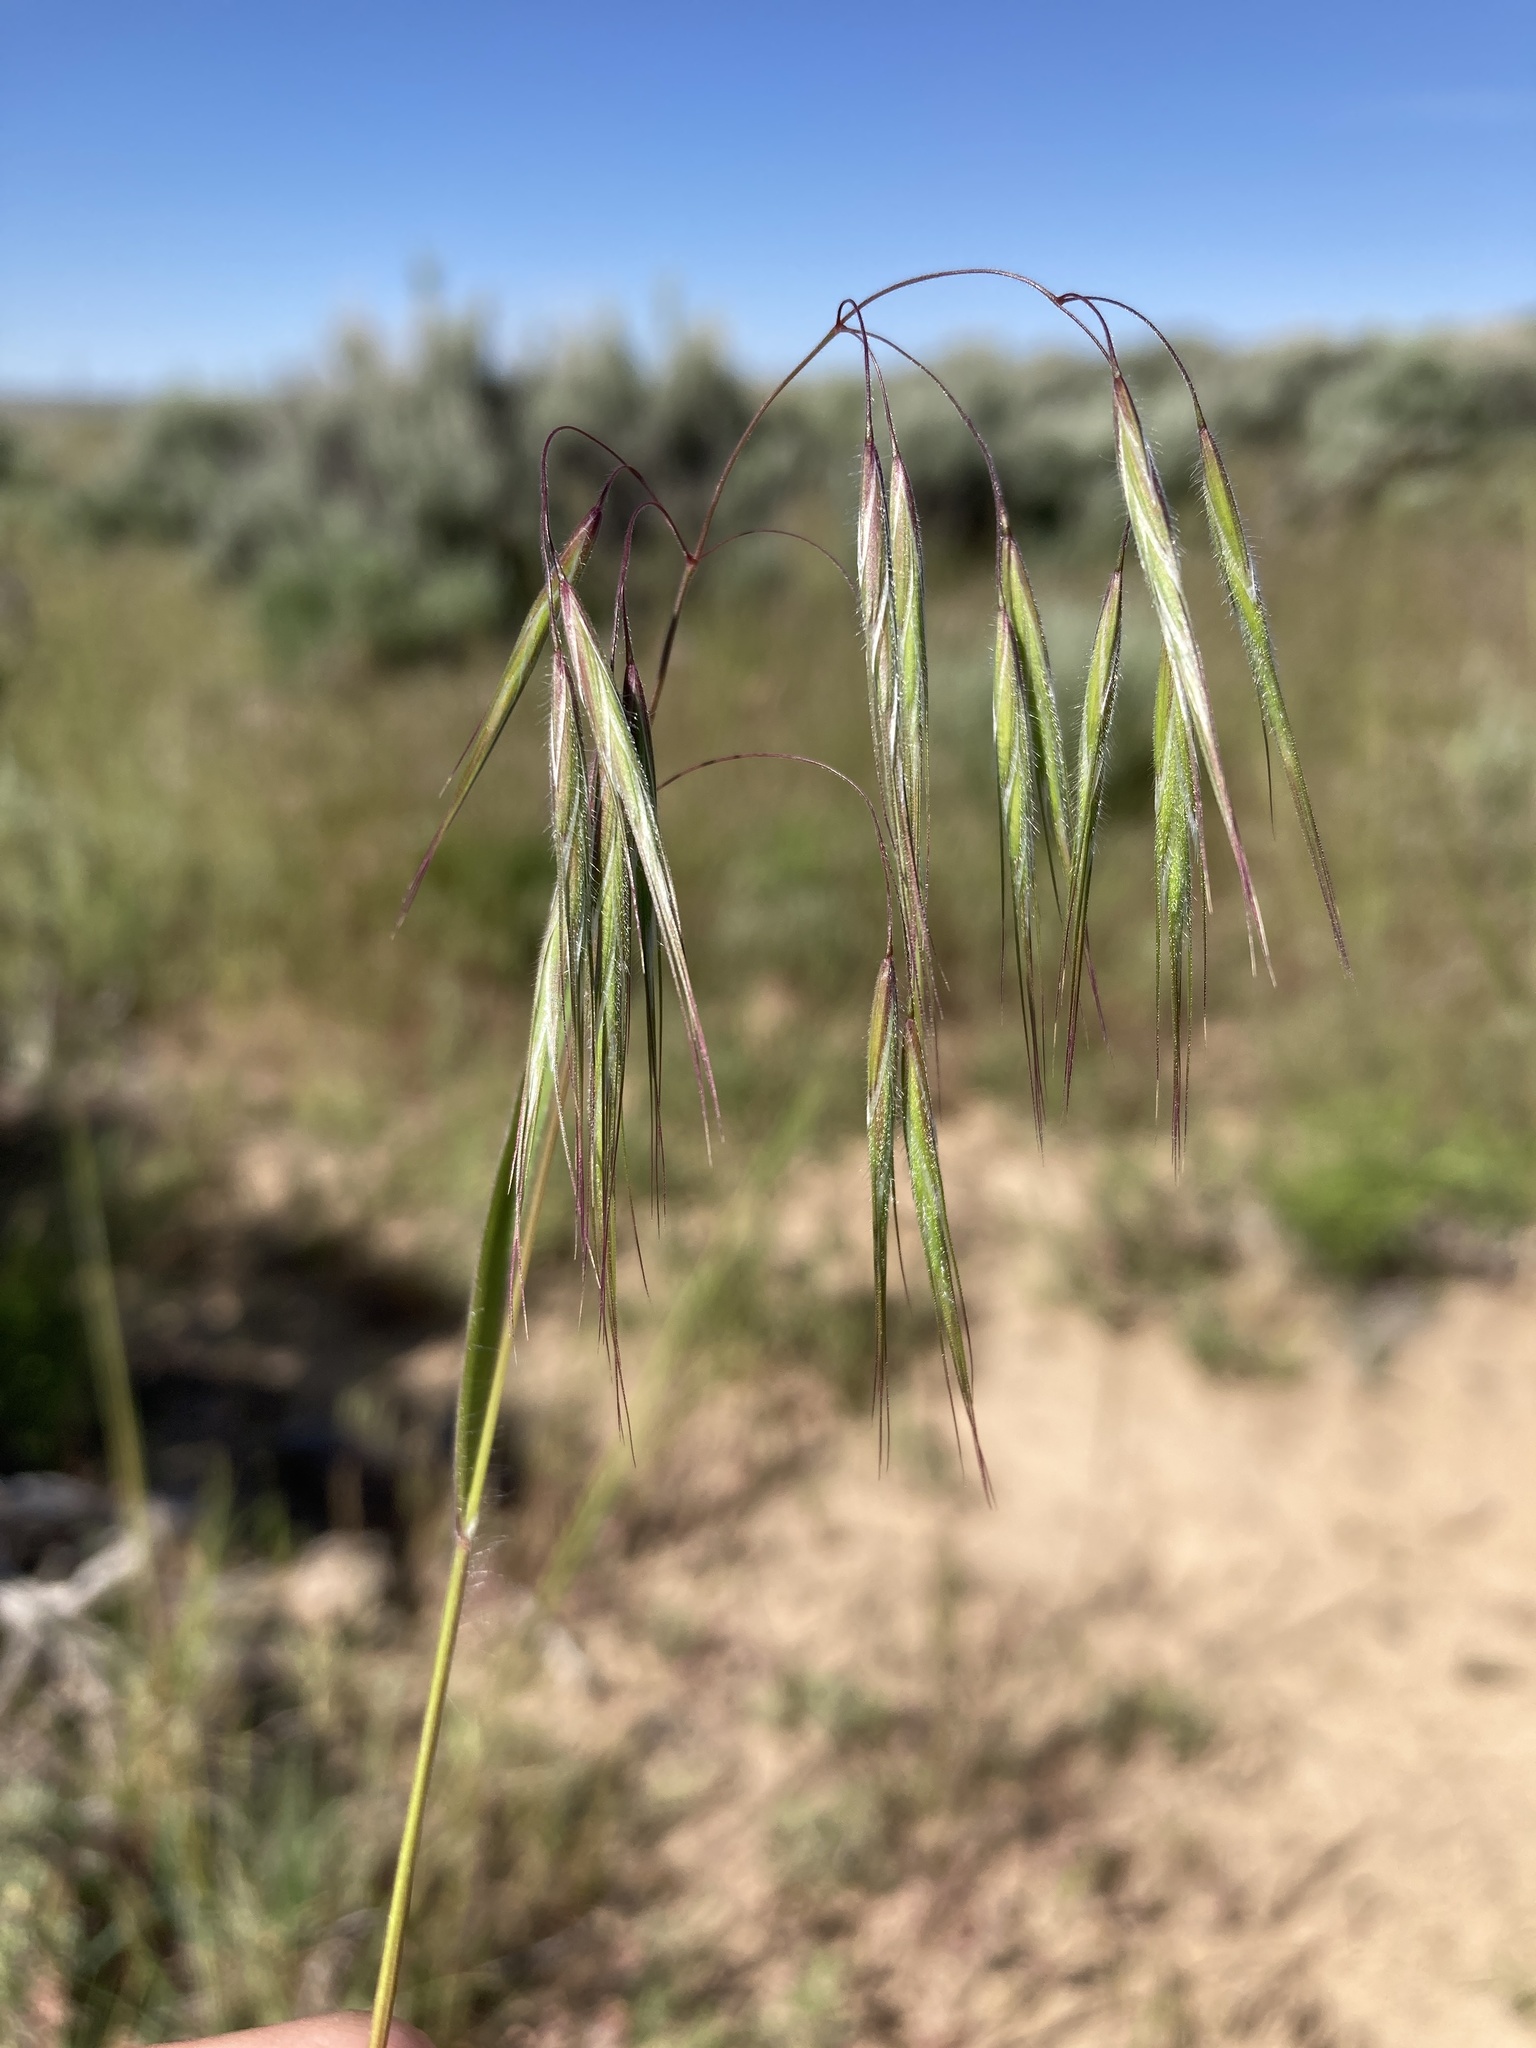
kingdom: Plantae
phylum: Tracheophyta
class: Liliopsida
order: Poales
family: Poaceae
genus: Bromus
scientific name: Bromus tectorum
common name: Cheatgrass
